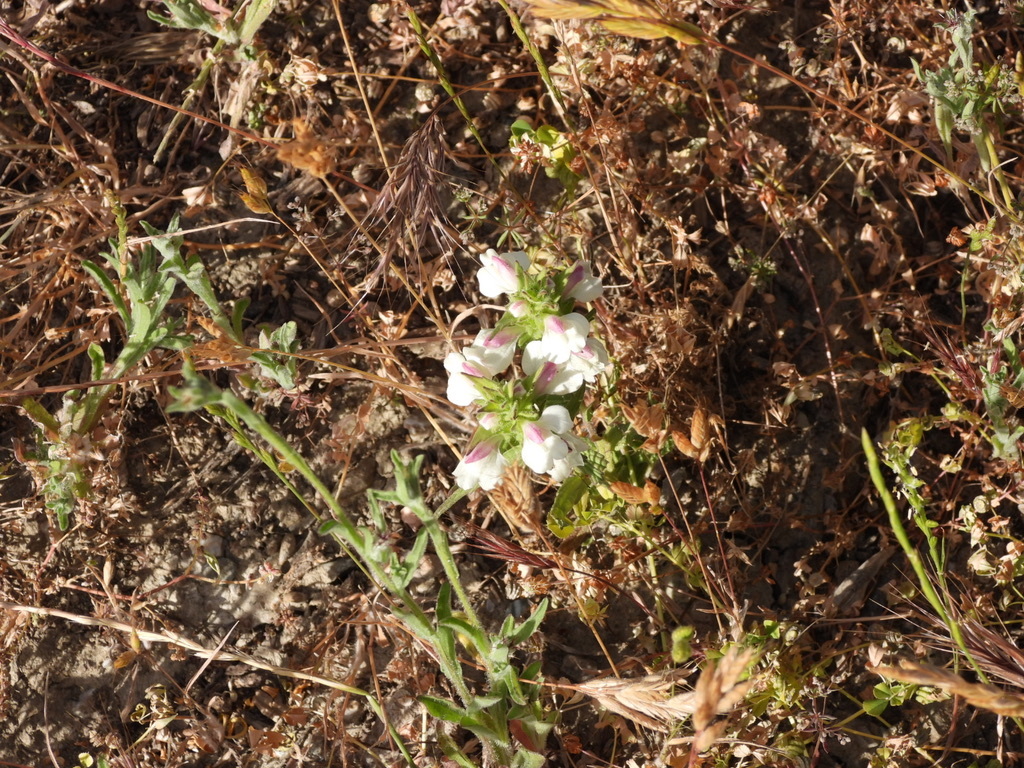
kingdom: Plantae
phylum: Tracheophyta
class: Magnoliopsida
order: Lamiales
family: Orobanchaceae
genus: Bellardia
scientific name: Bellardia trixago
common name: Mediterranean lineseed
